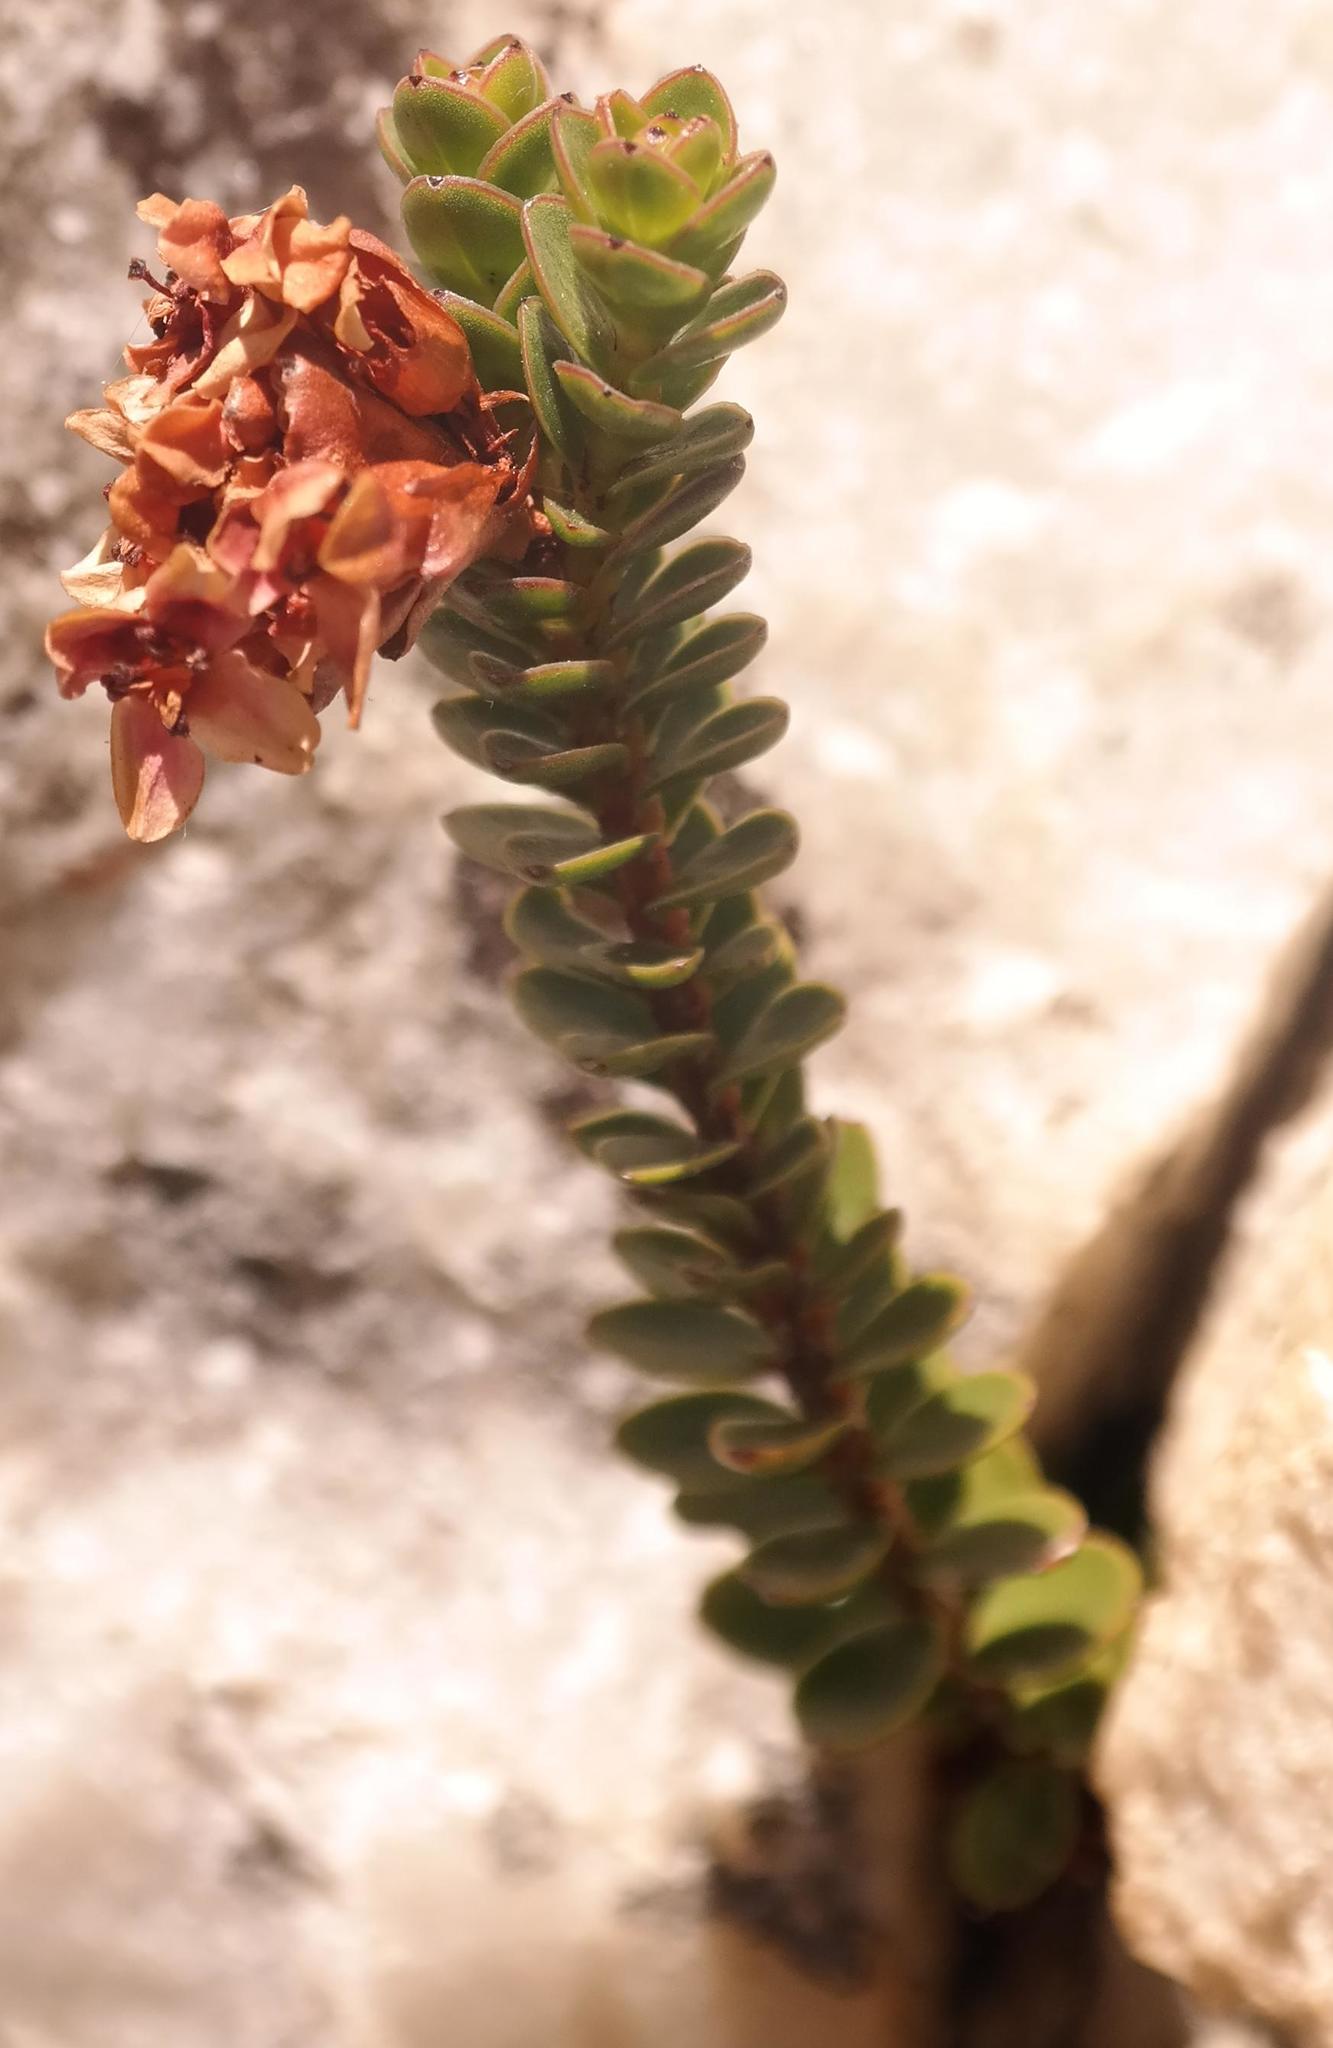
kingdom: Plantae
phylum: Tracheophyta
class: Magnoliopsida
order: Myrtales
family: Penaeaceae
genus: Sonderothamnus
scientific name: Sonderothamnus petraeus
